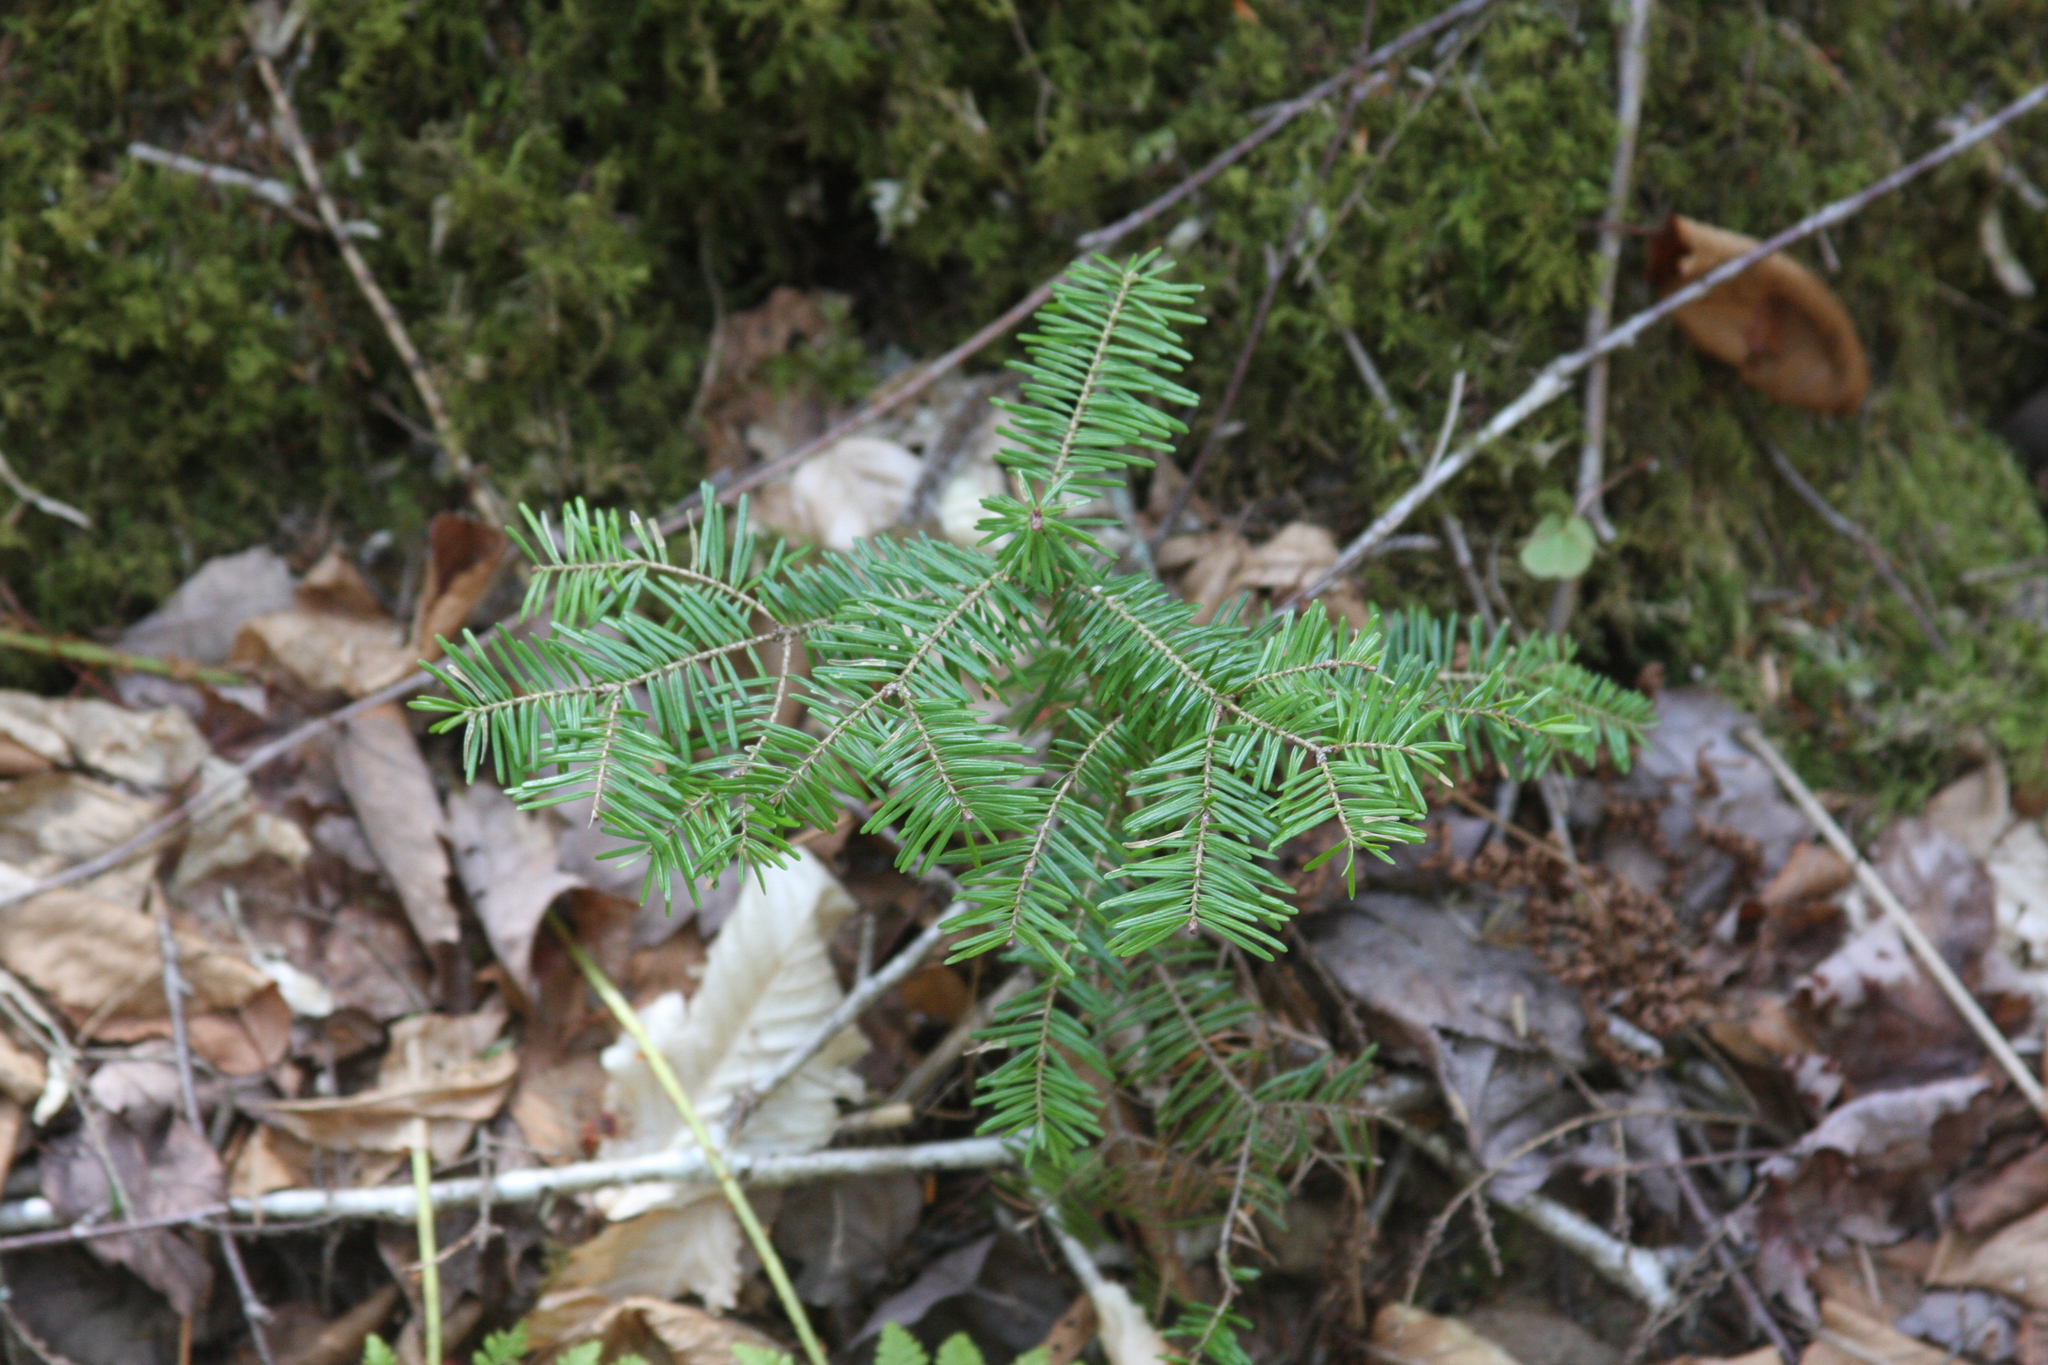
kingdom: Plantae
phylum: Tracheophyta
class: Pinopsida
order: Pinales
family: Pinaceae
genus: Abies
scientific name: Abies balsamea
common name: Balsam fir
